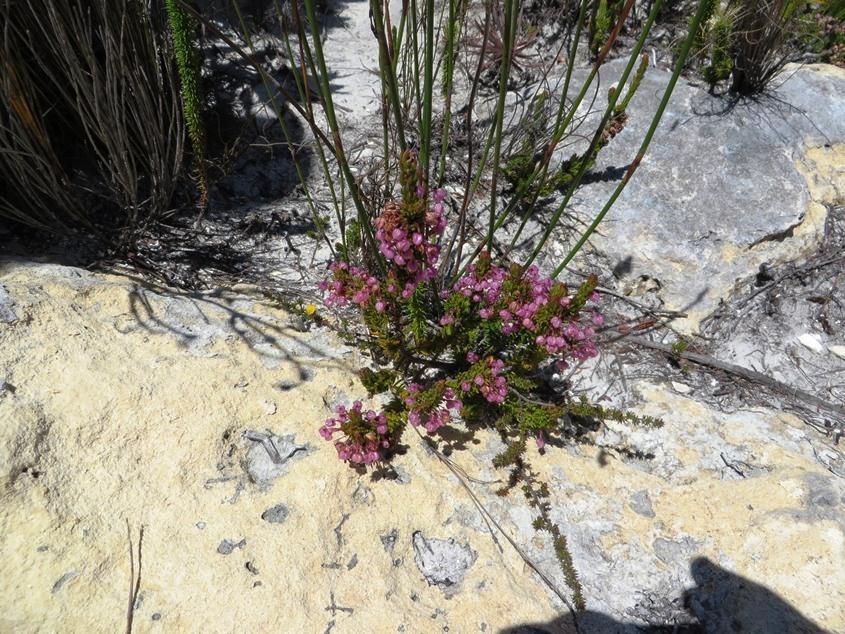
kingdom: Plantae
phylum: Tracheophyta
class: Magnoliopsida
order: Ericales
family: Ericaceae
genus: Erica
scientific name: Erica gracilipes
